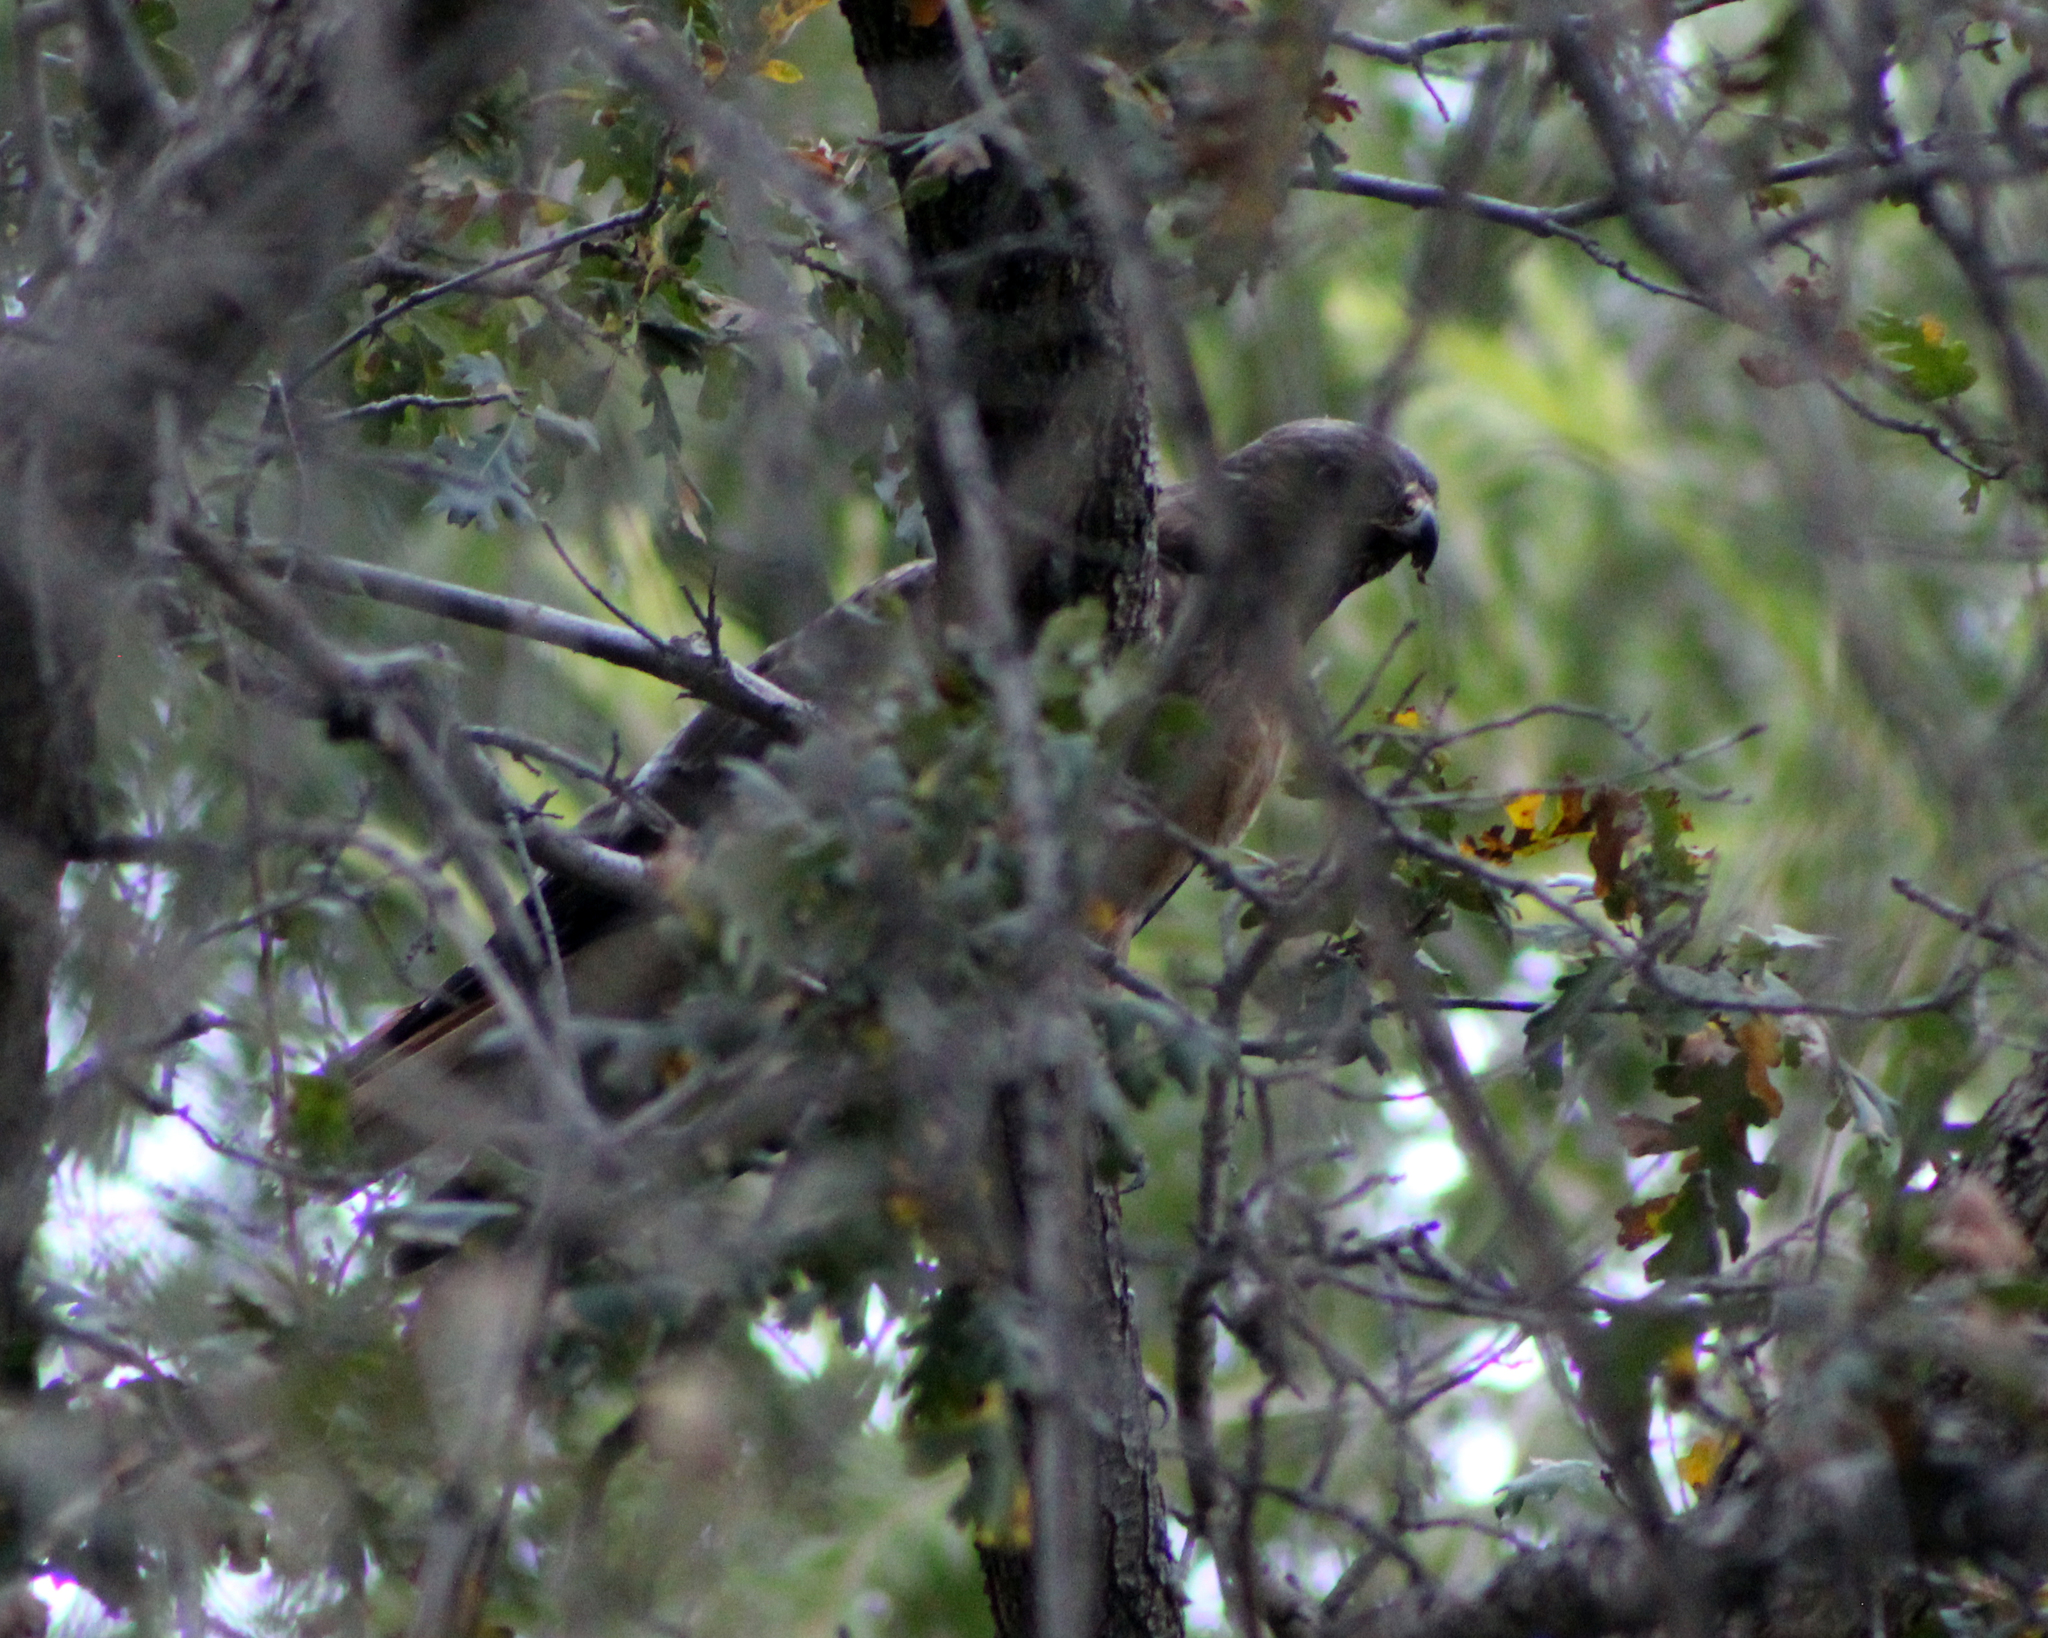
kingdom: Animalia
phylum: Chordata
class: Aves
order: Accipitriformes
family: Accipitridae
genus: Buteo
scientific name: Buteo jamaicensis
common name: Red-tailed hawk
